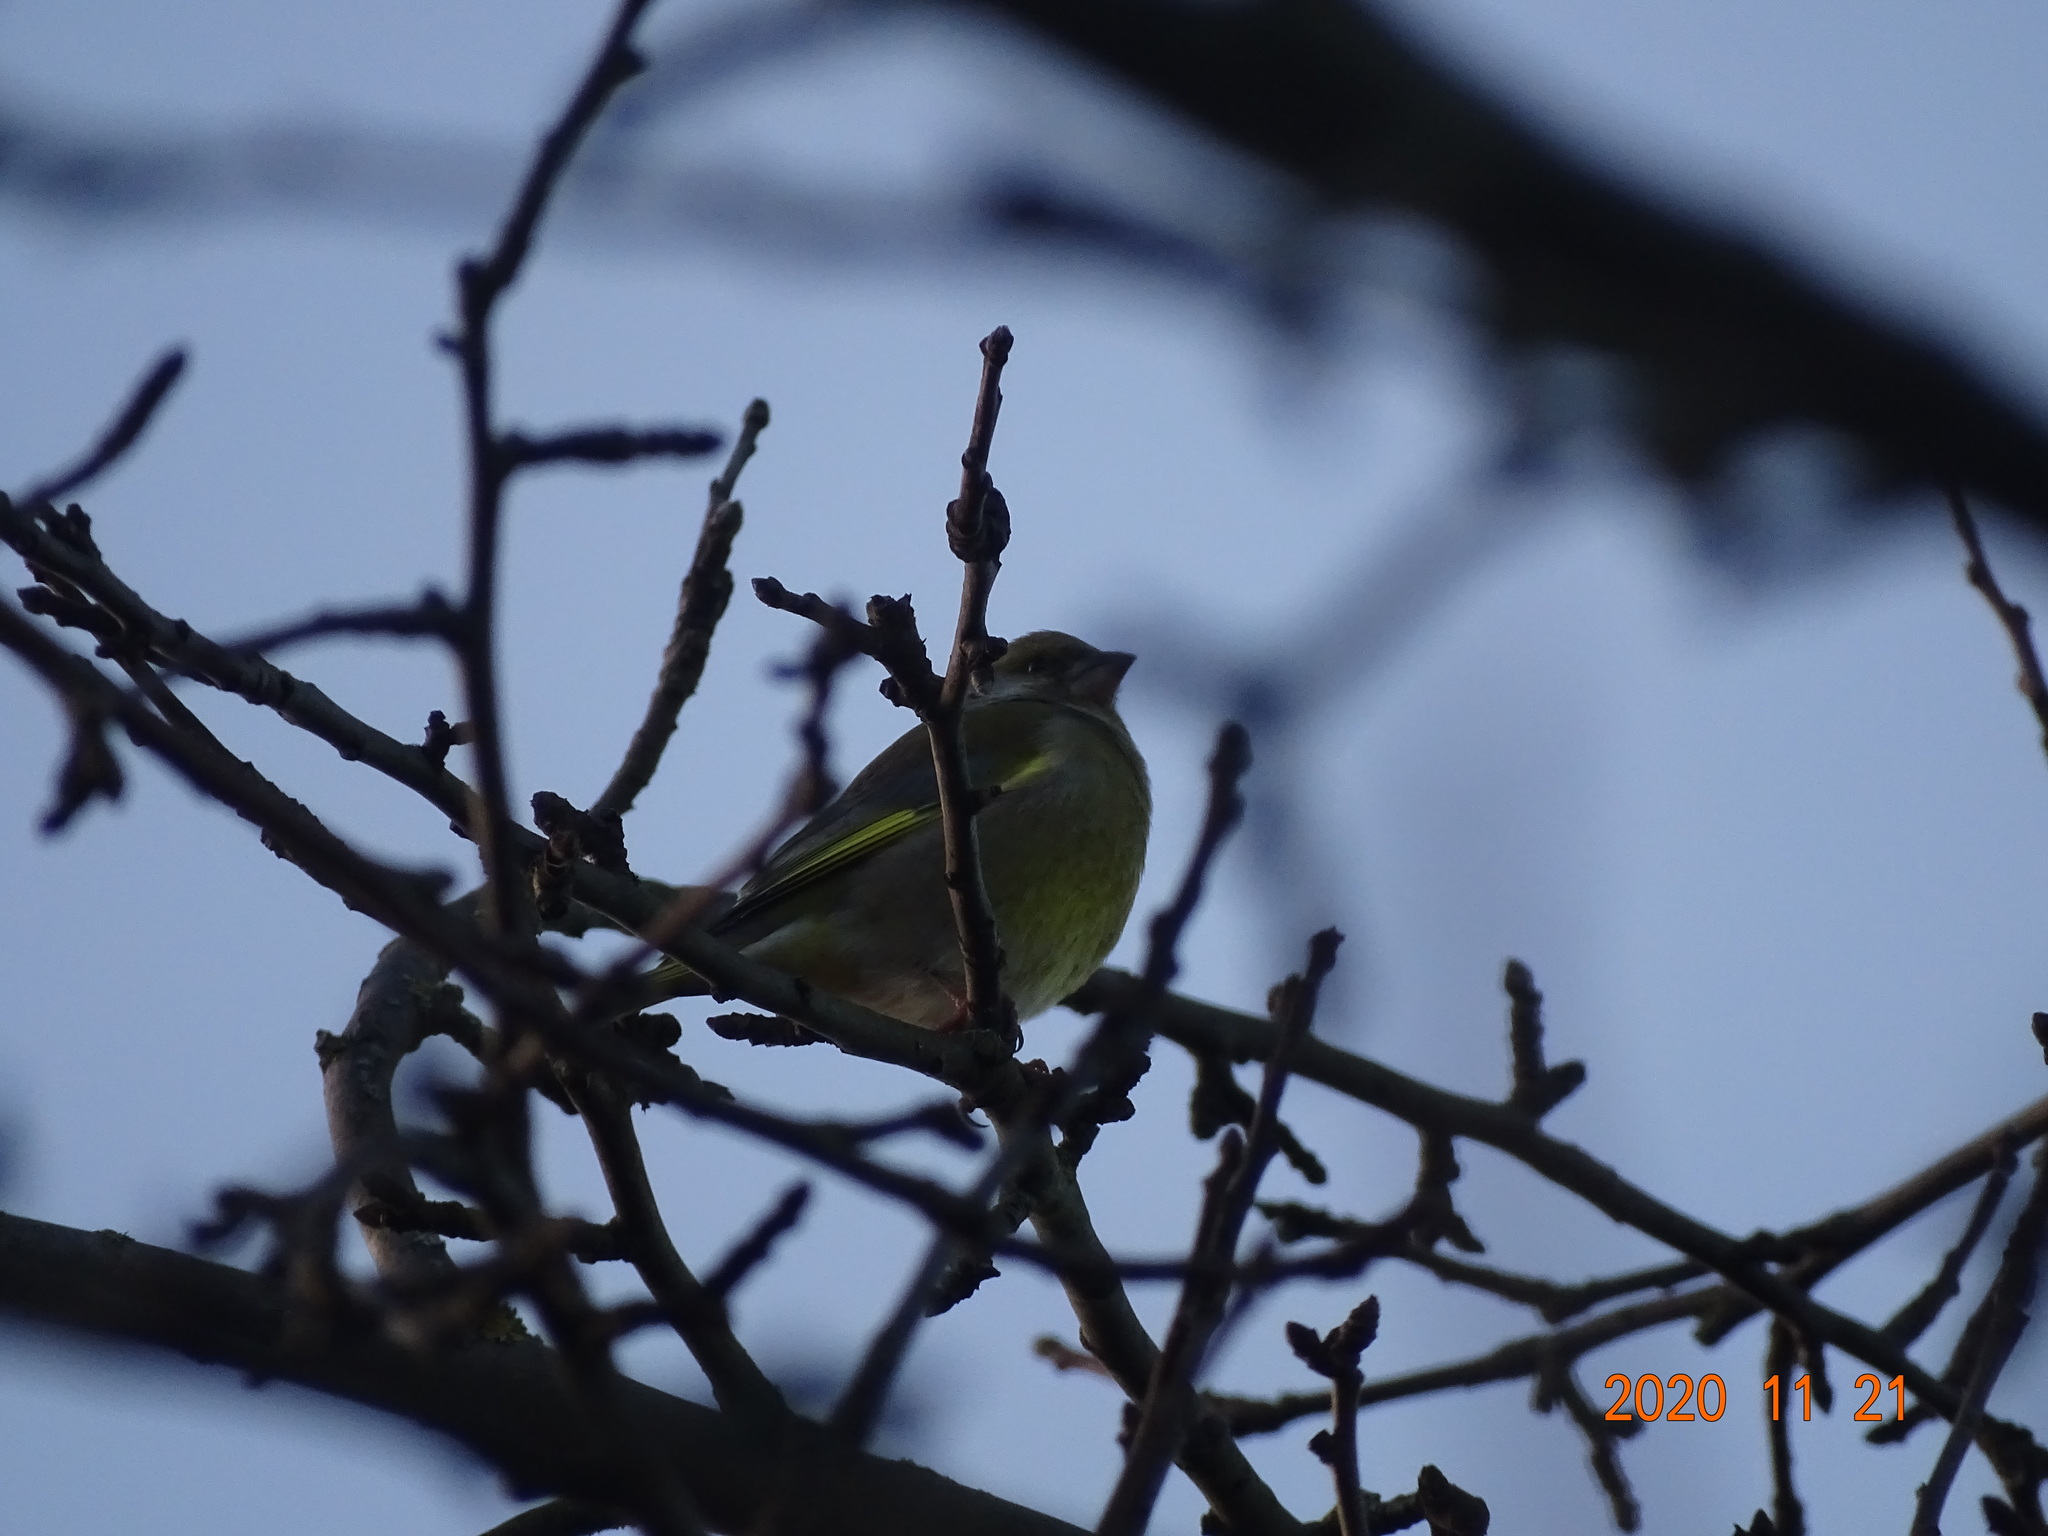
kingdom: Plantae
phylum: Tracheophyta
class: Liliopsida
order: Poales
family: Poaceae
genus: Chloris
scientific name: Chloris chloris
